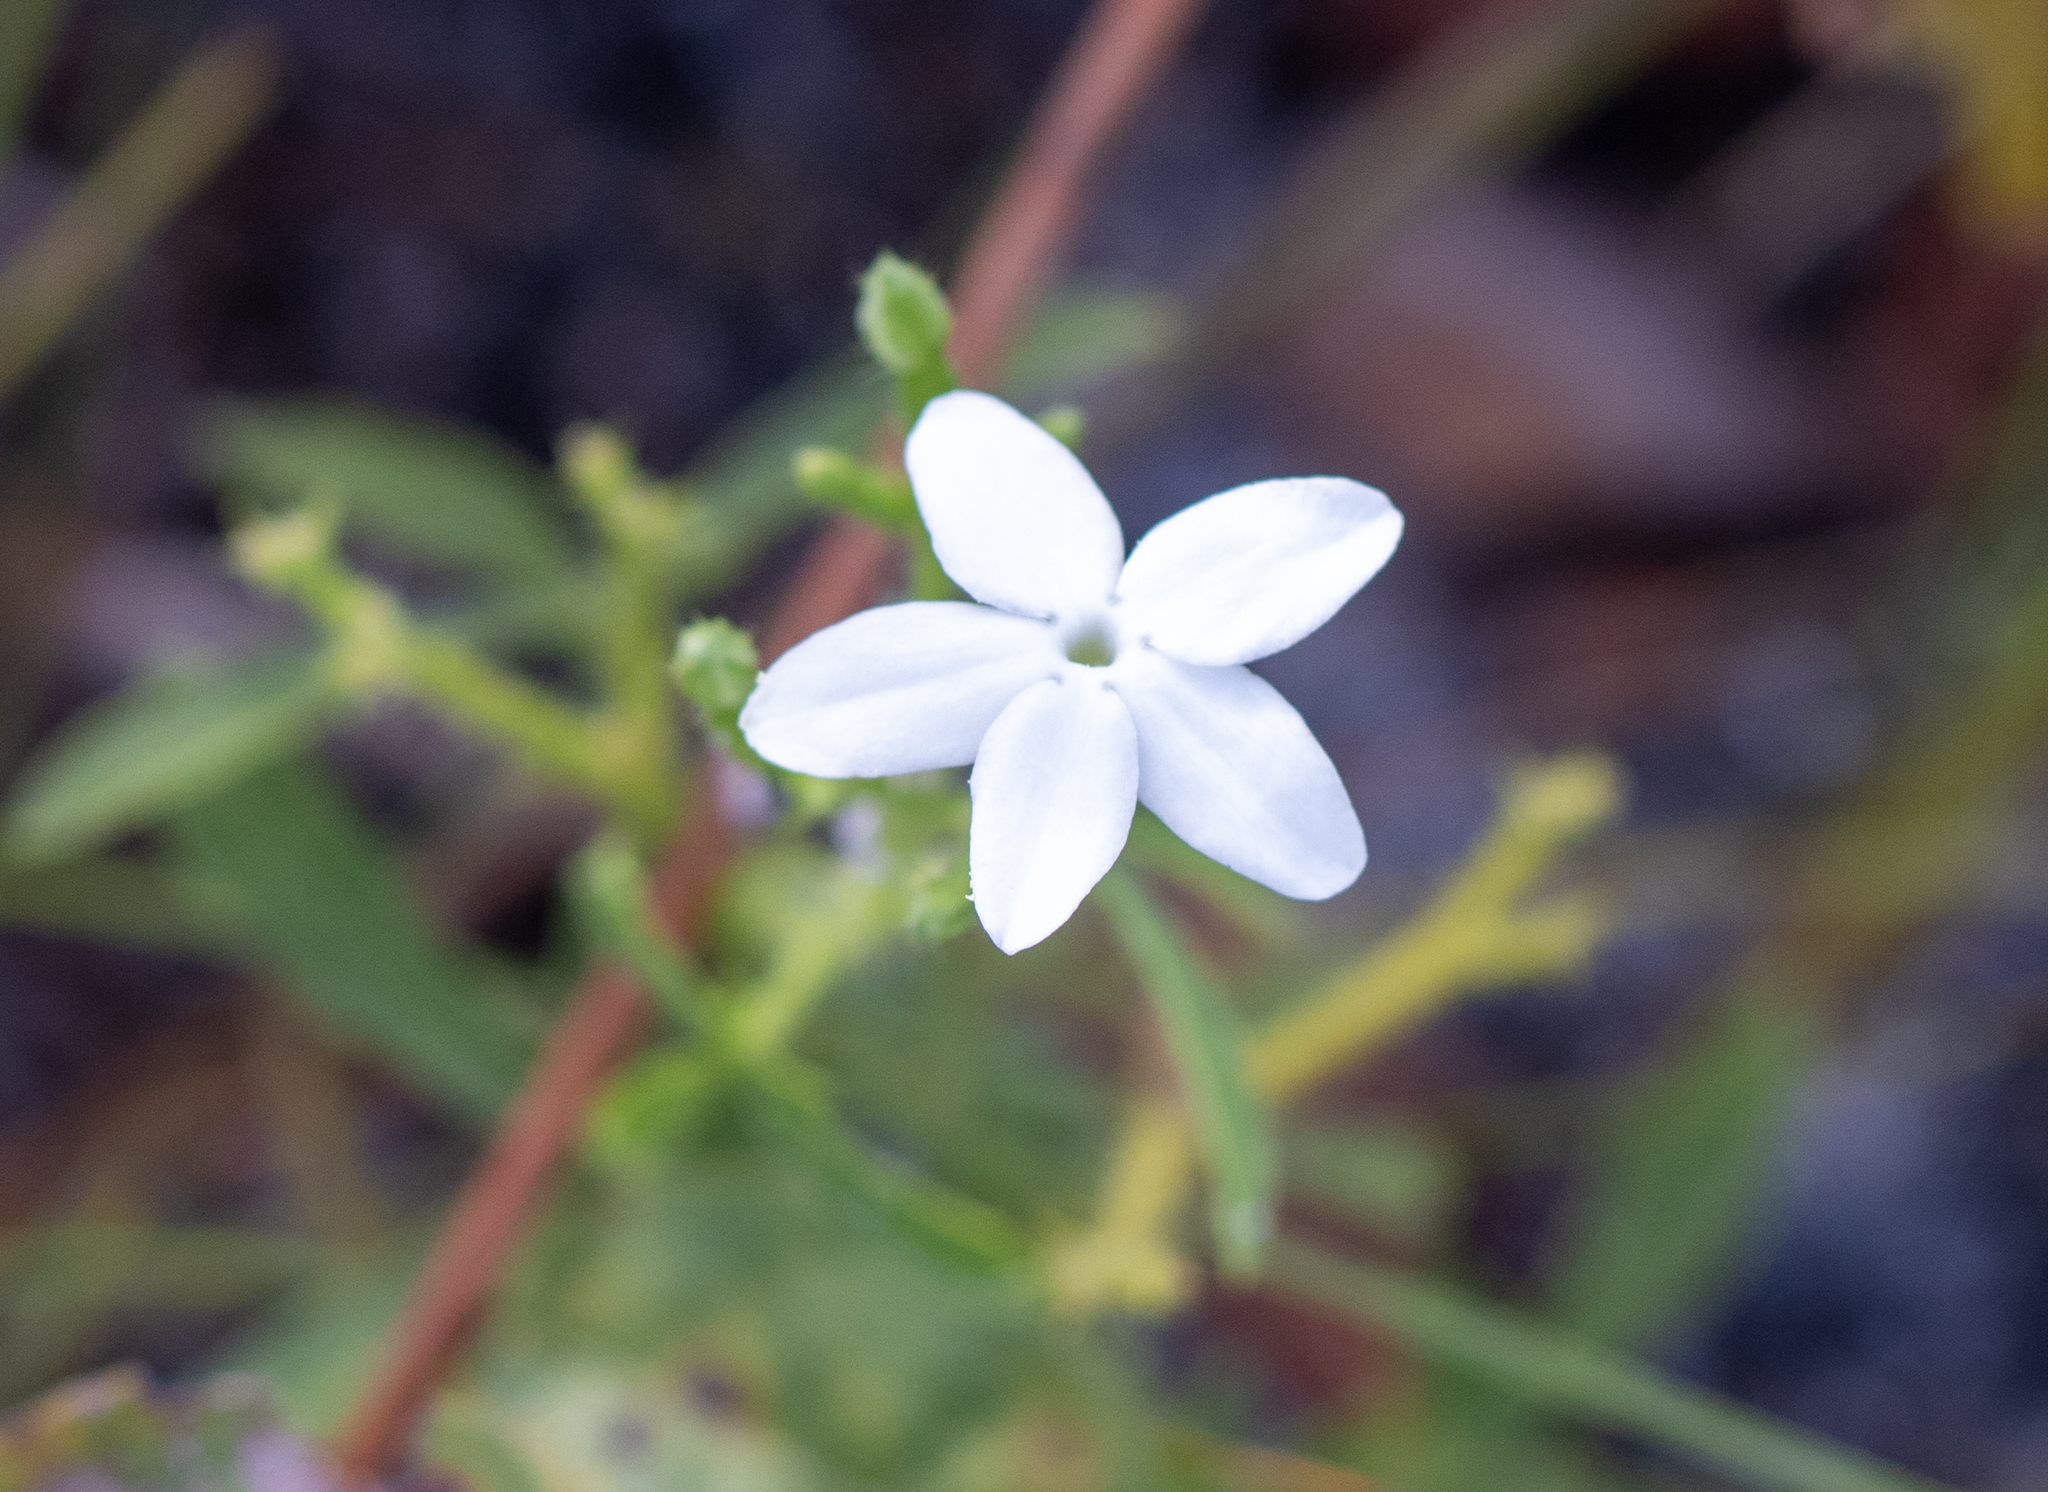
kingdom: Plantae
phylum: Tracheophyta
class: Magnoliopsida
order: Malpighiales
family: Euphorbiaceae
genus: Cnidoscolus
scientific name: Cnidoscolus stimulosus
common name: Bull-nettle
